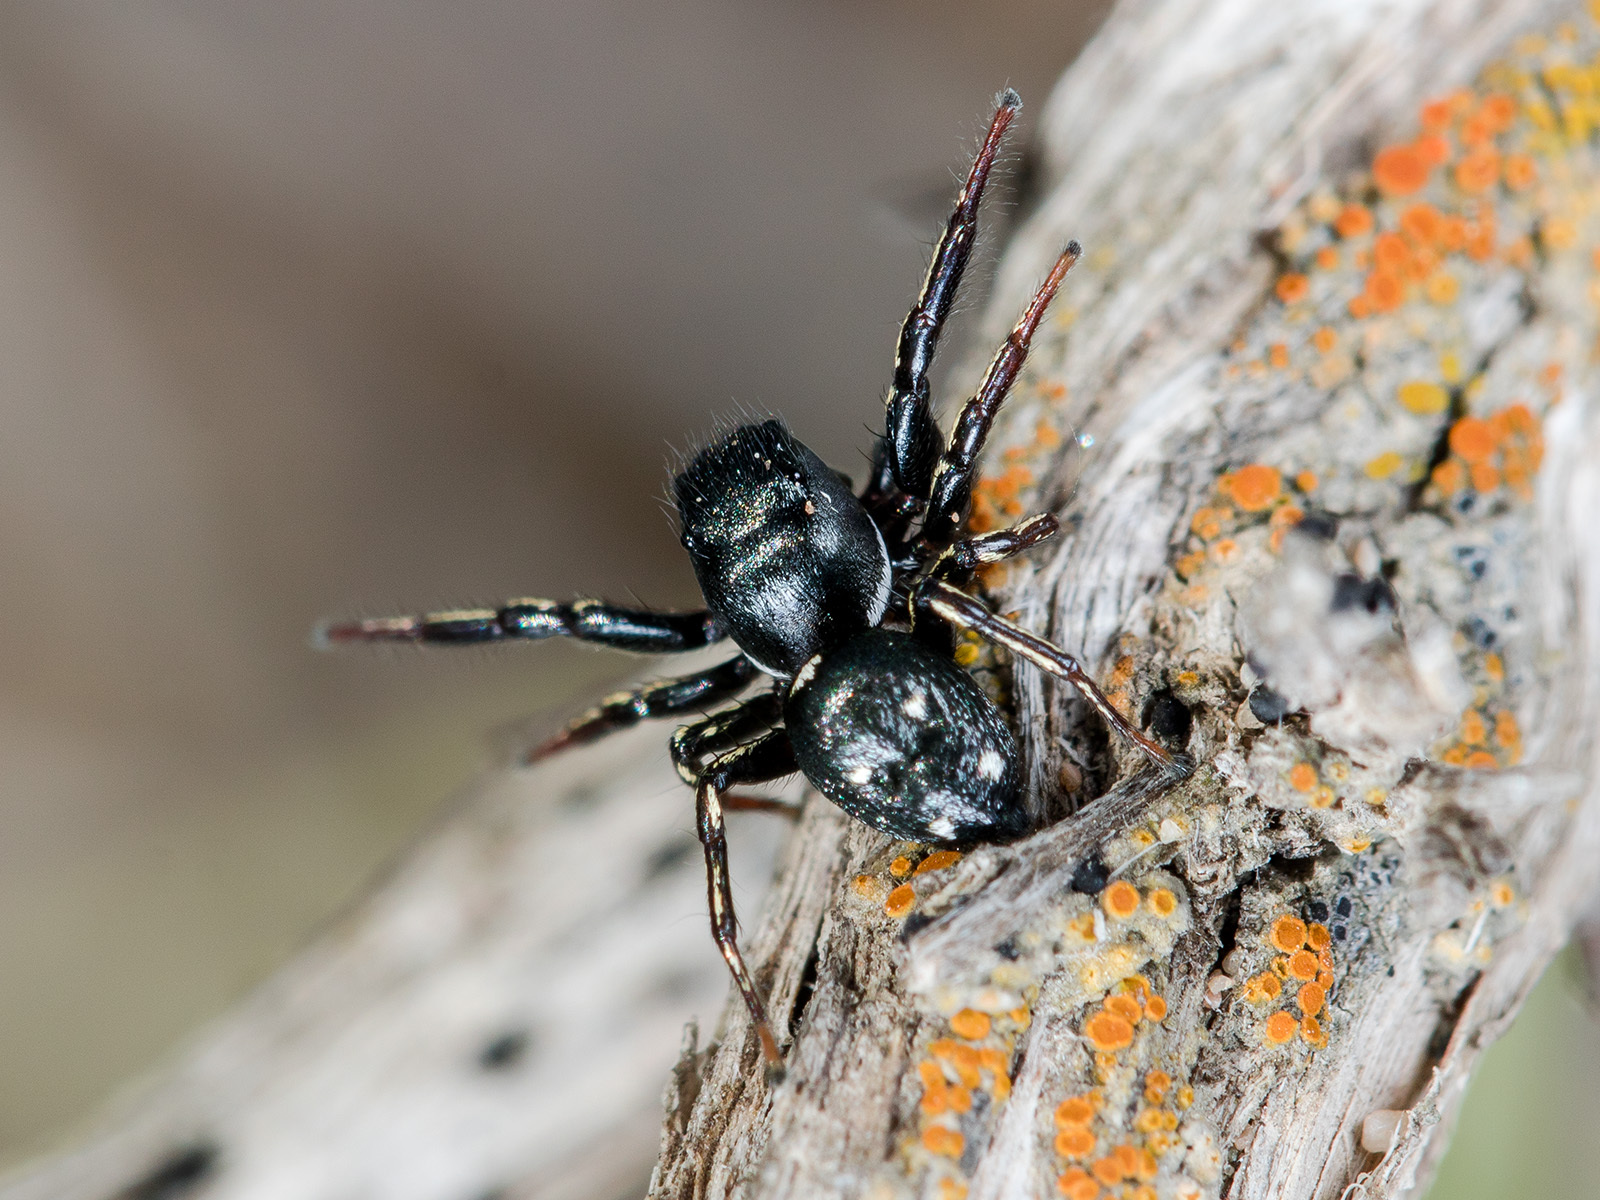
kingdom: Animalia
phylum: Arthropoda
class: Arachnida
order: Araneae
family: Salticidae
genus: Heliophanus
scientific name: Heliophanus chovdensis
